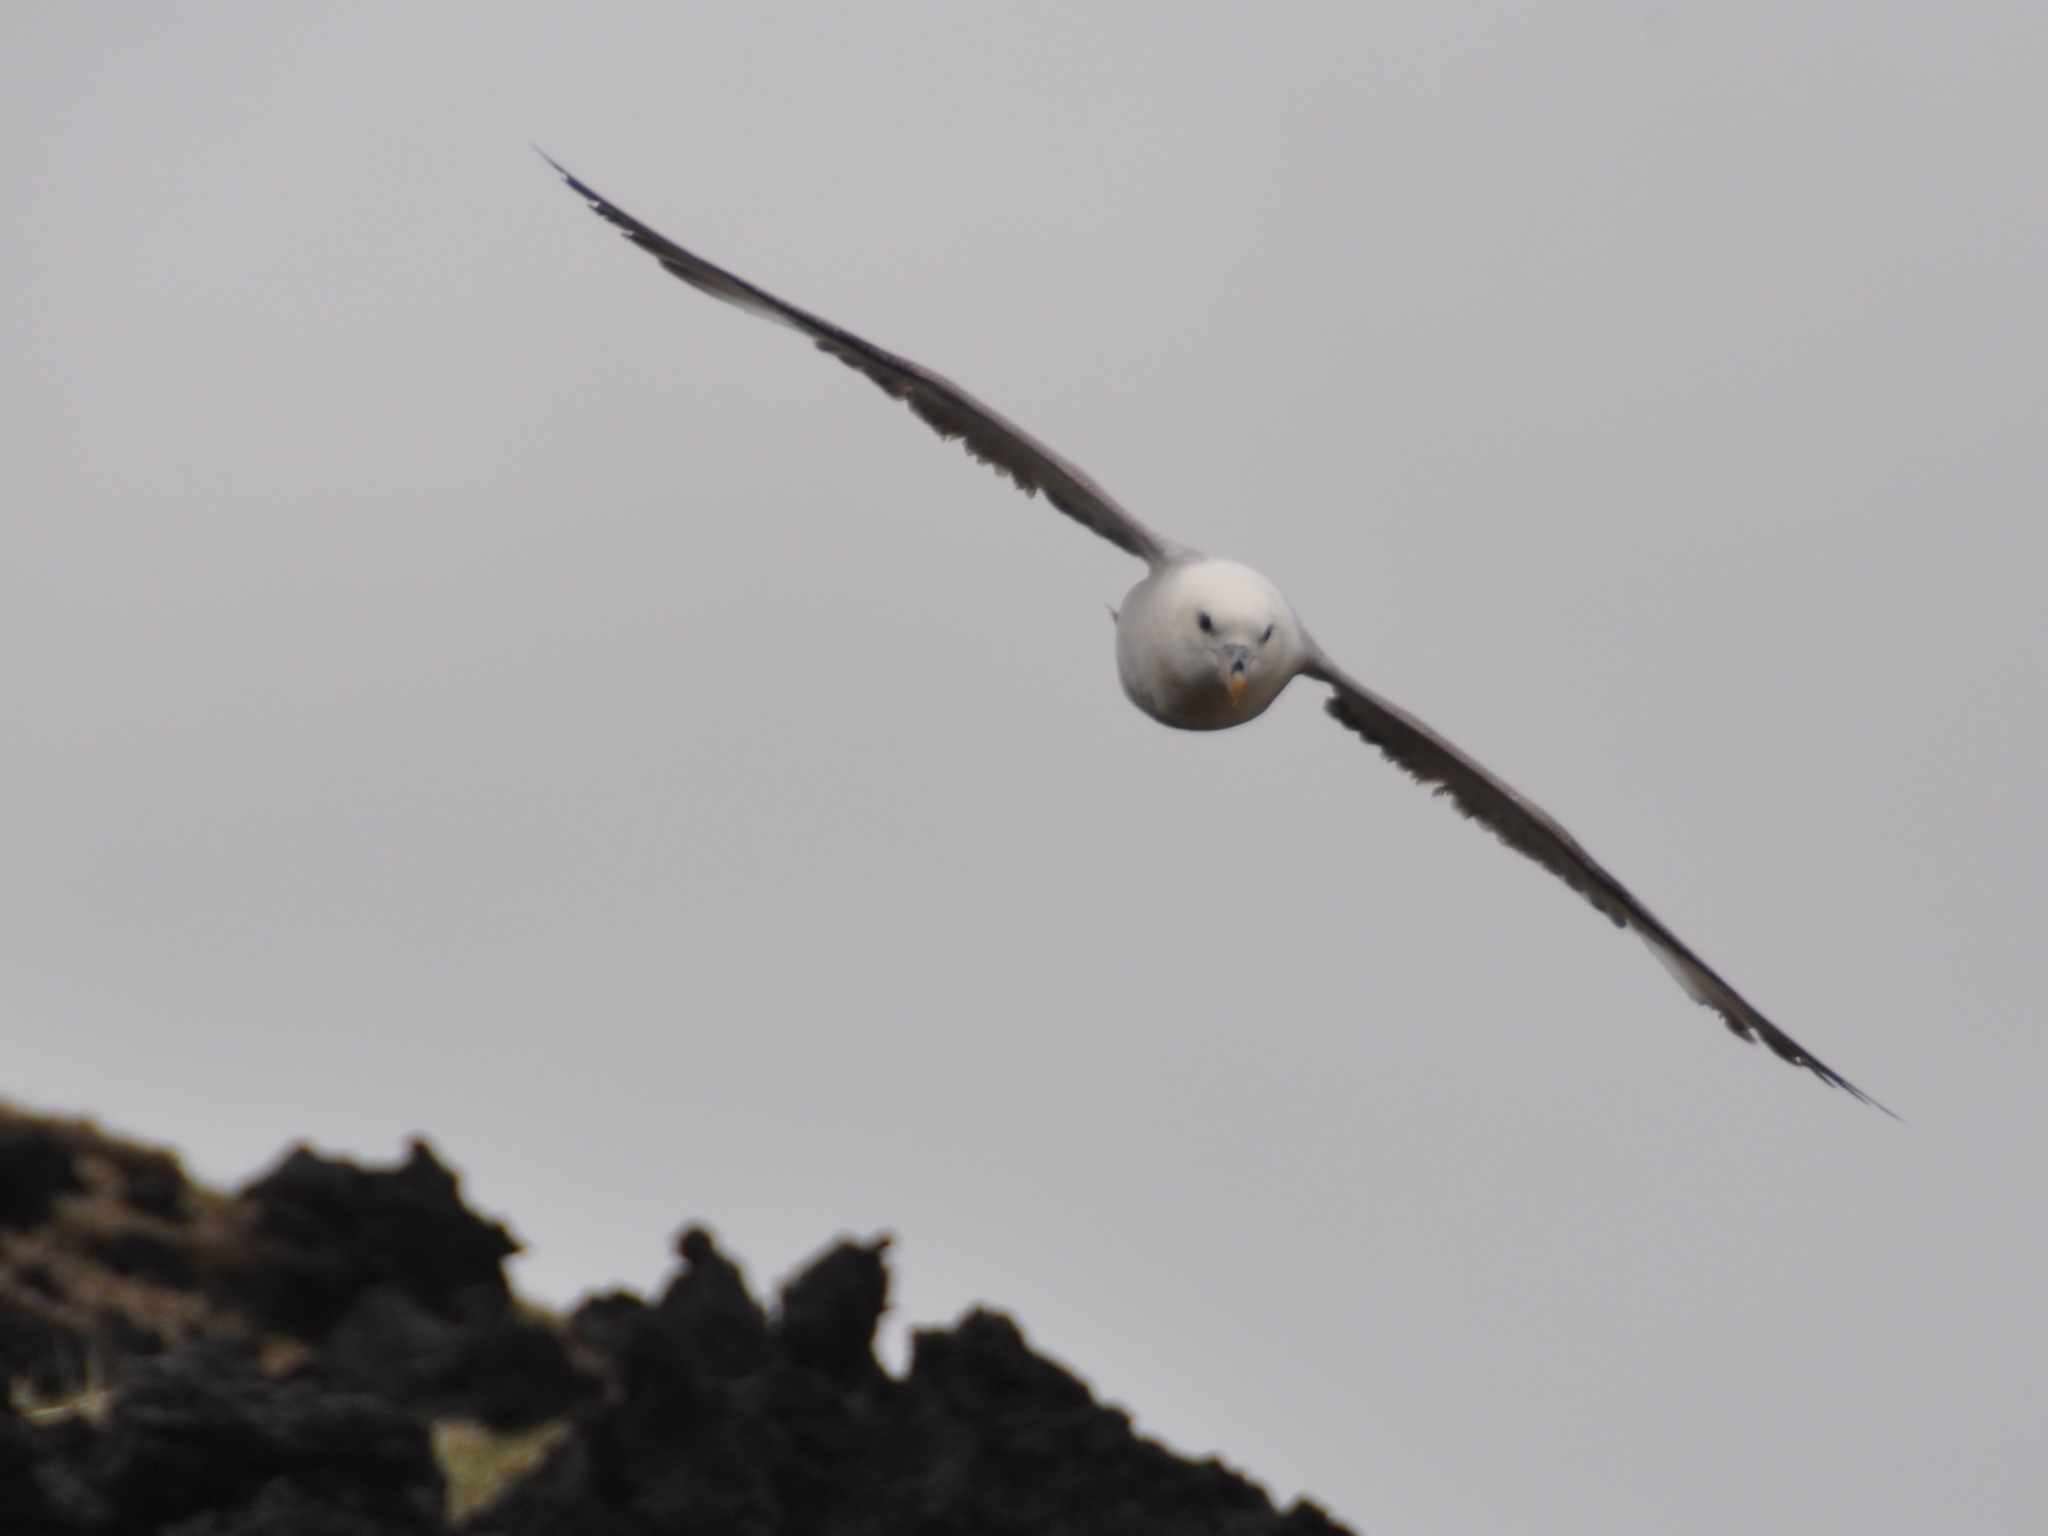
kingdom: Animalia
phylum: Chordata
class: Aves
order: Procellariiformes
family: Procellariidae
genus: Fulmarus
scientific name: Fulmarus glacialis
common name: Northern fulmar
